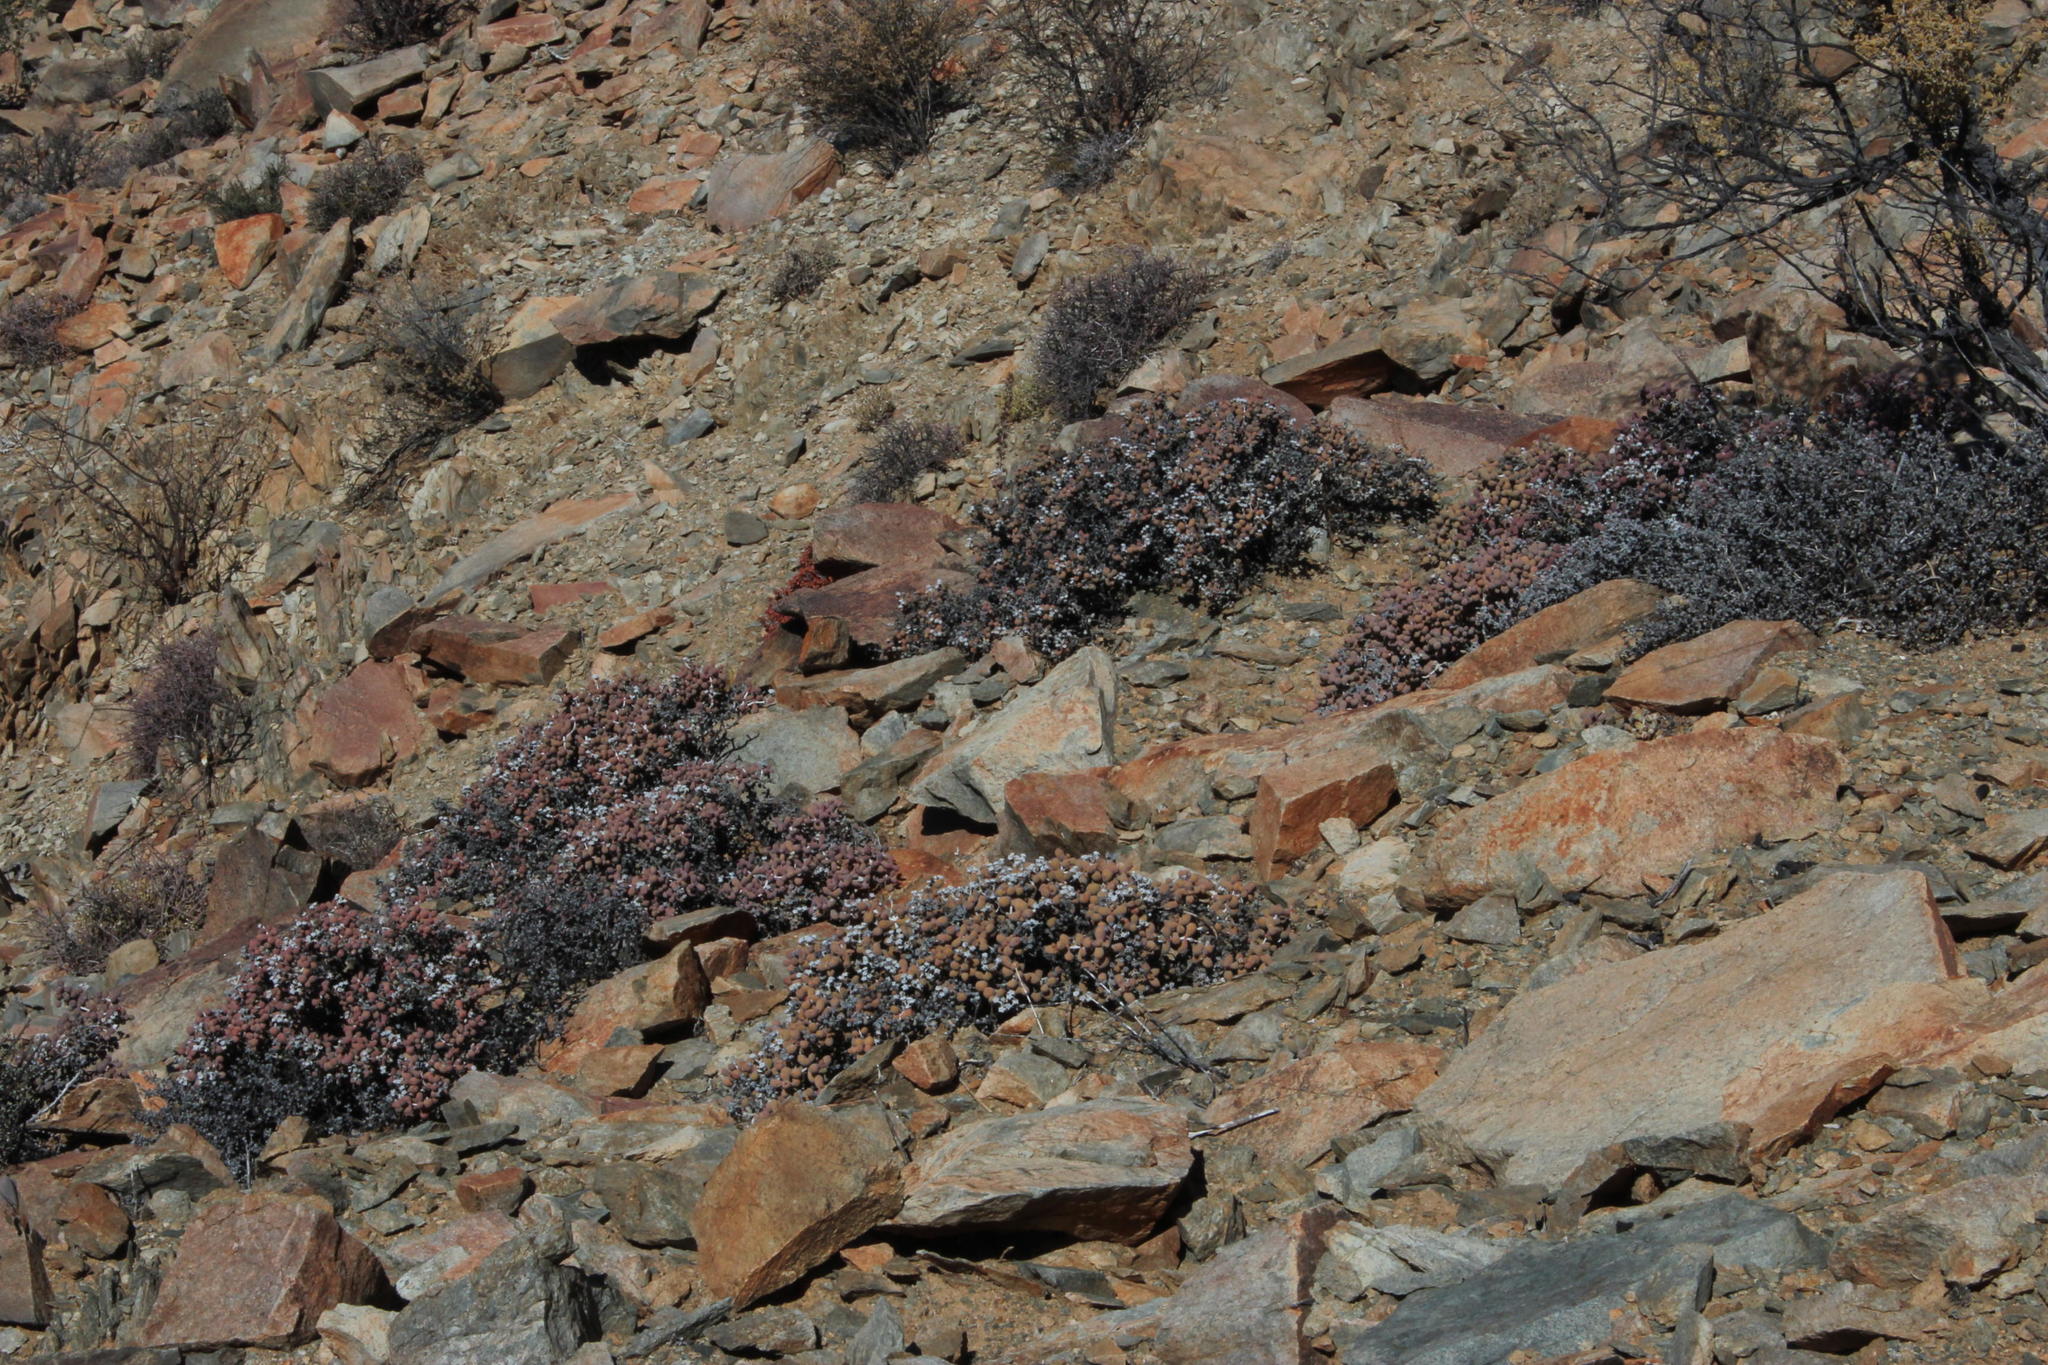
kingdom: Plantae
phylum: Tracheophyta
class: Magnoliopsida
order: Caryophyllales
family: Aizoaceae
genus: Eberlanzia
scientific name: Eberlanzia schneideriana
